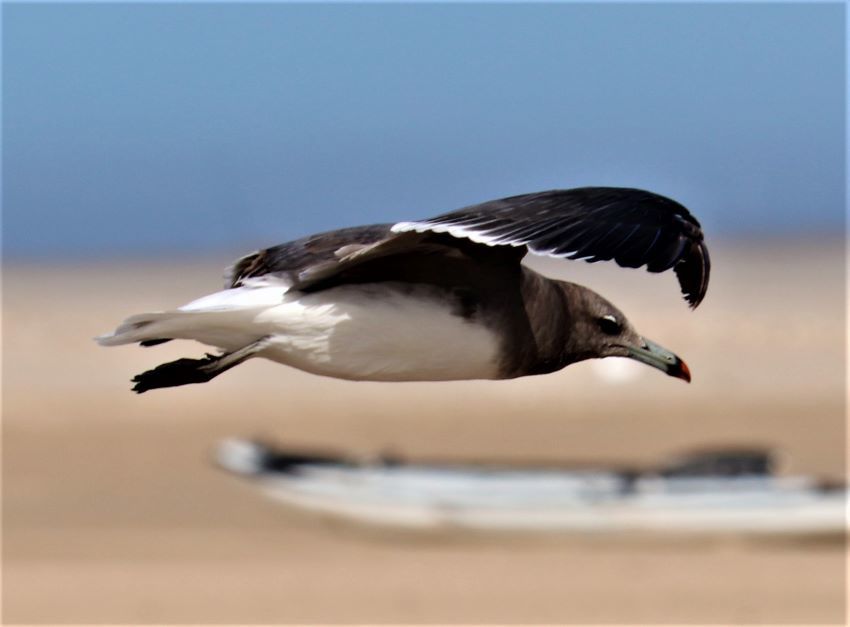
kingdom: Animalia
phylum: Chordata
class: Aves
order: Charadriiformes
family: Laridae
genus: Ichthyaetus
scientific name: Ichthyaetus hemprichii
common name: Sooty gull
